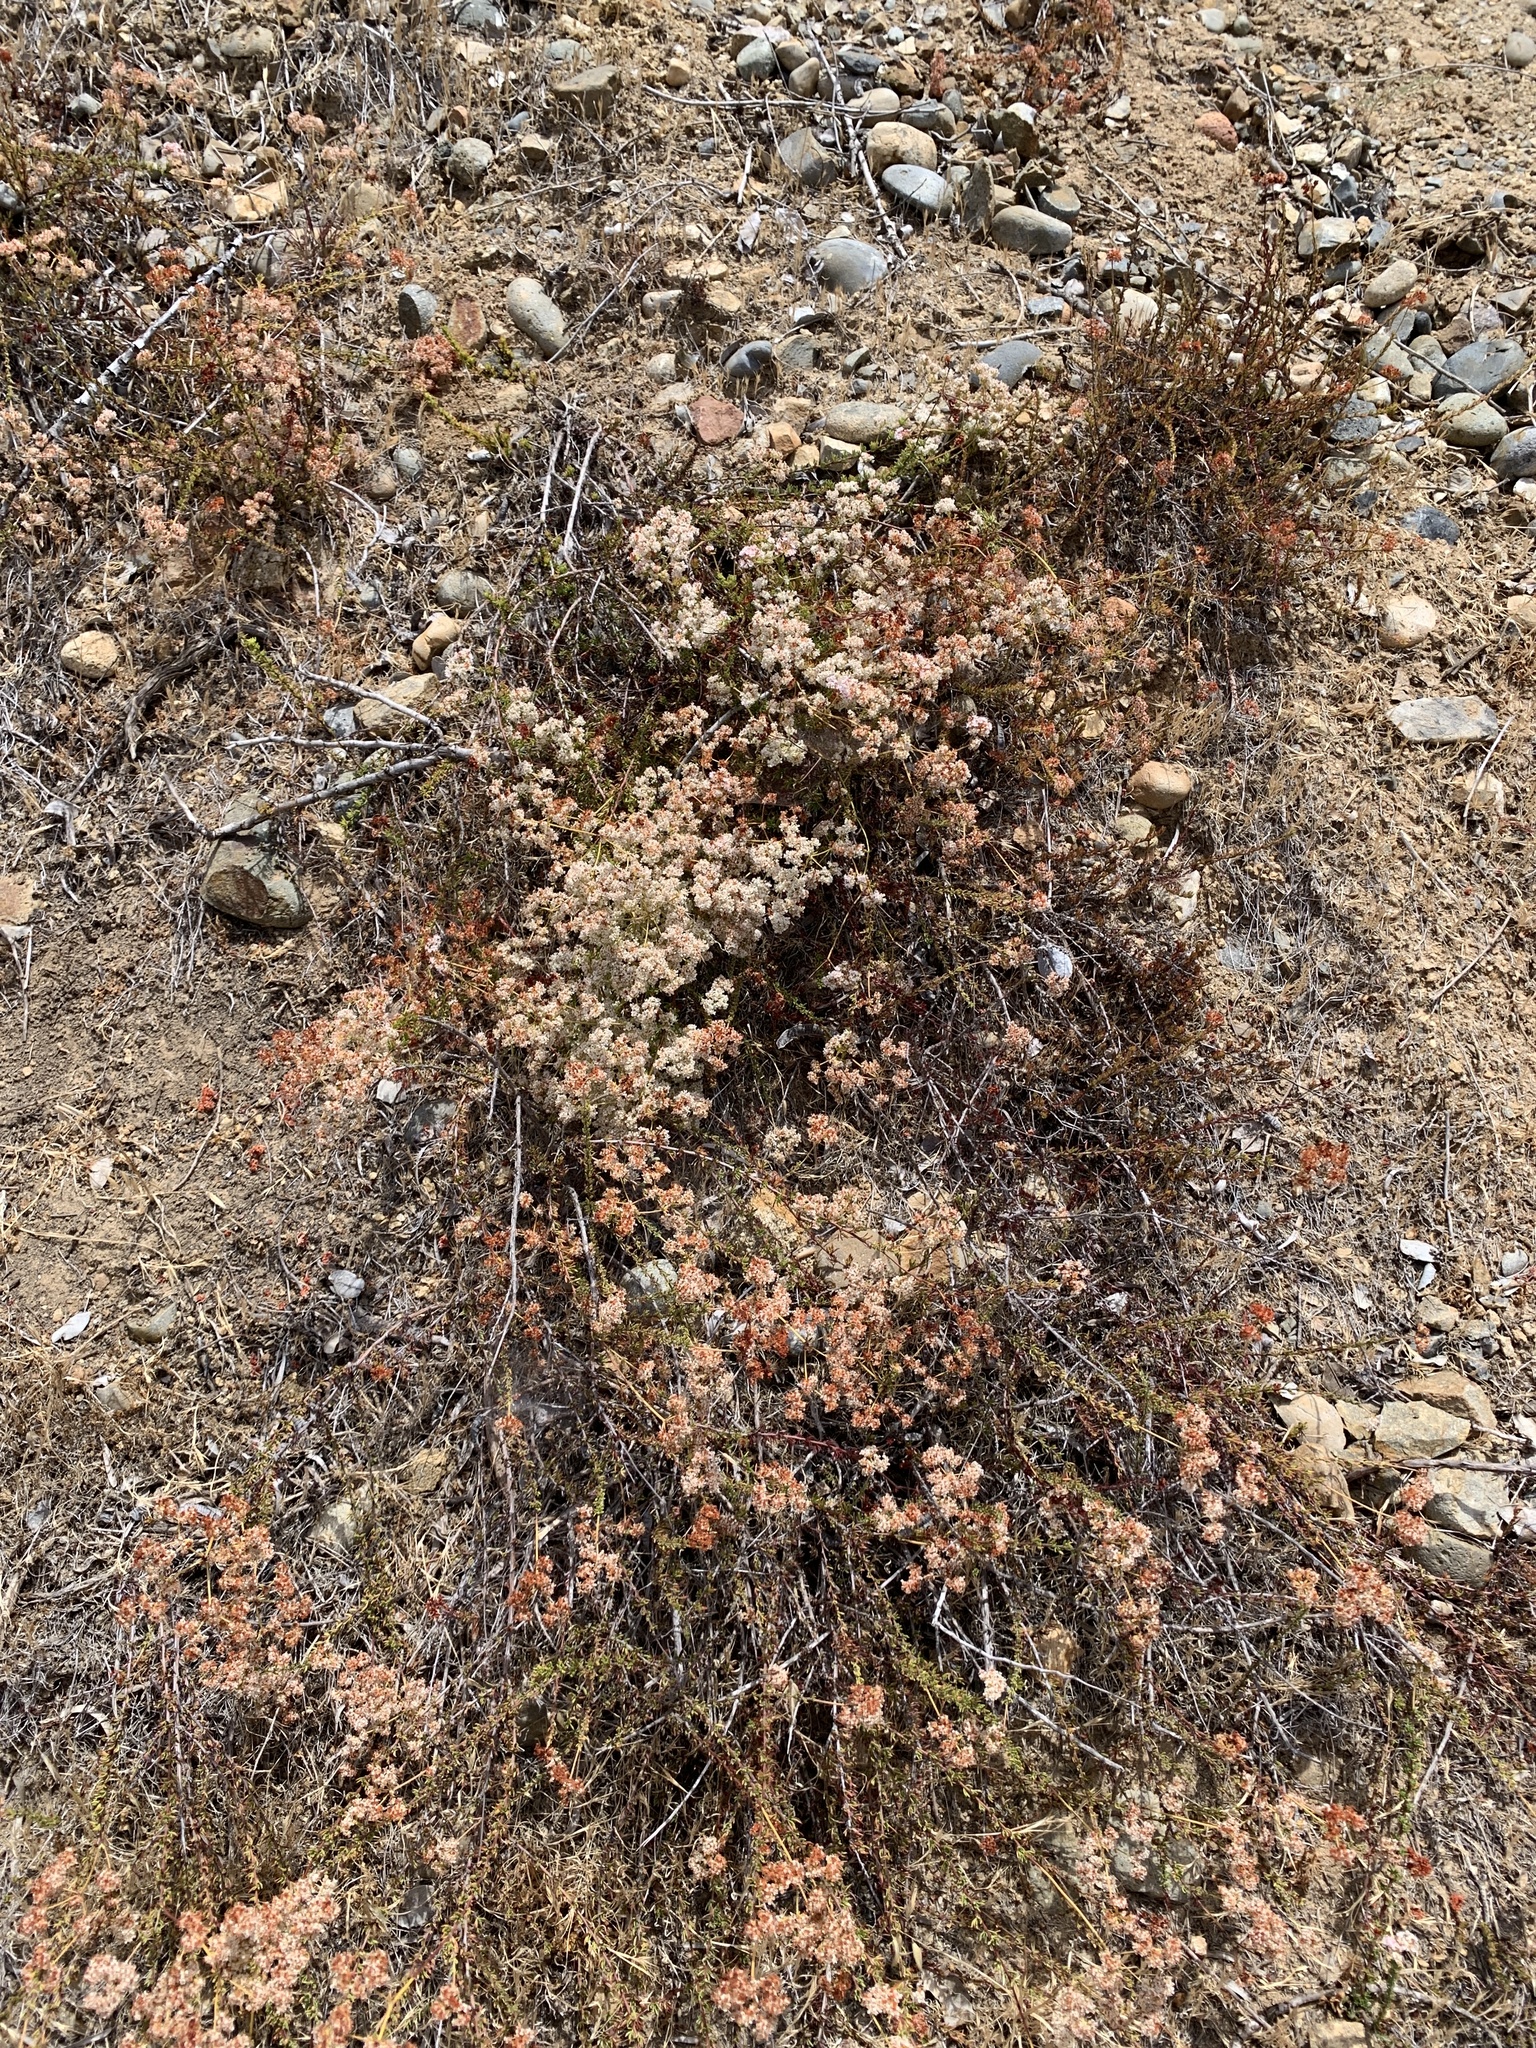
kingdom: Plantae
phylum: Tracheophyta
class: Magnoliopsida
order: Caryophyllales
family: Polygonaceae
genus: Eriogonum
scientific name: Eriogonum fasciculatum
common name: California wild buckwheat
